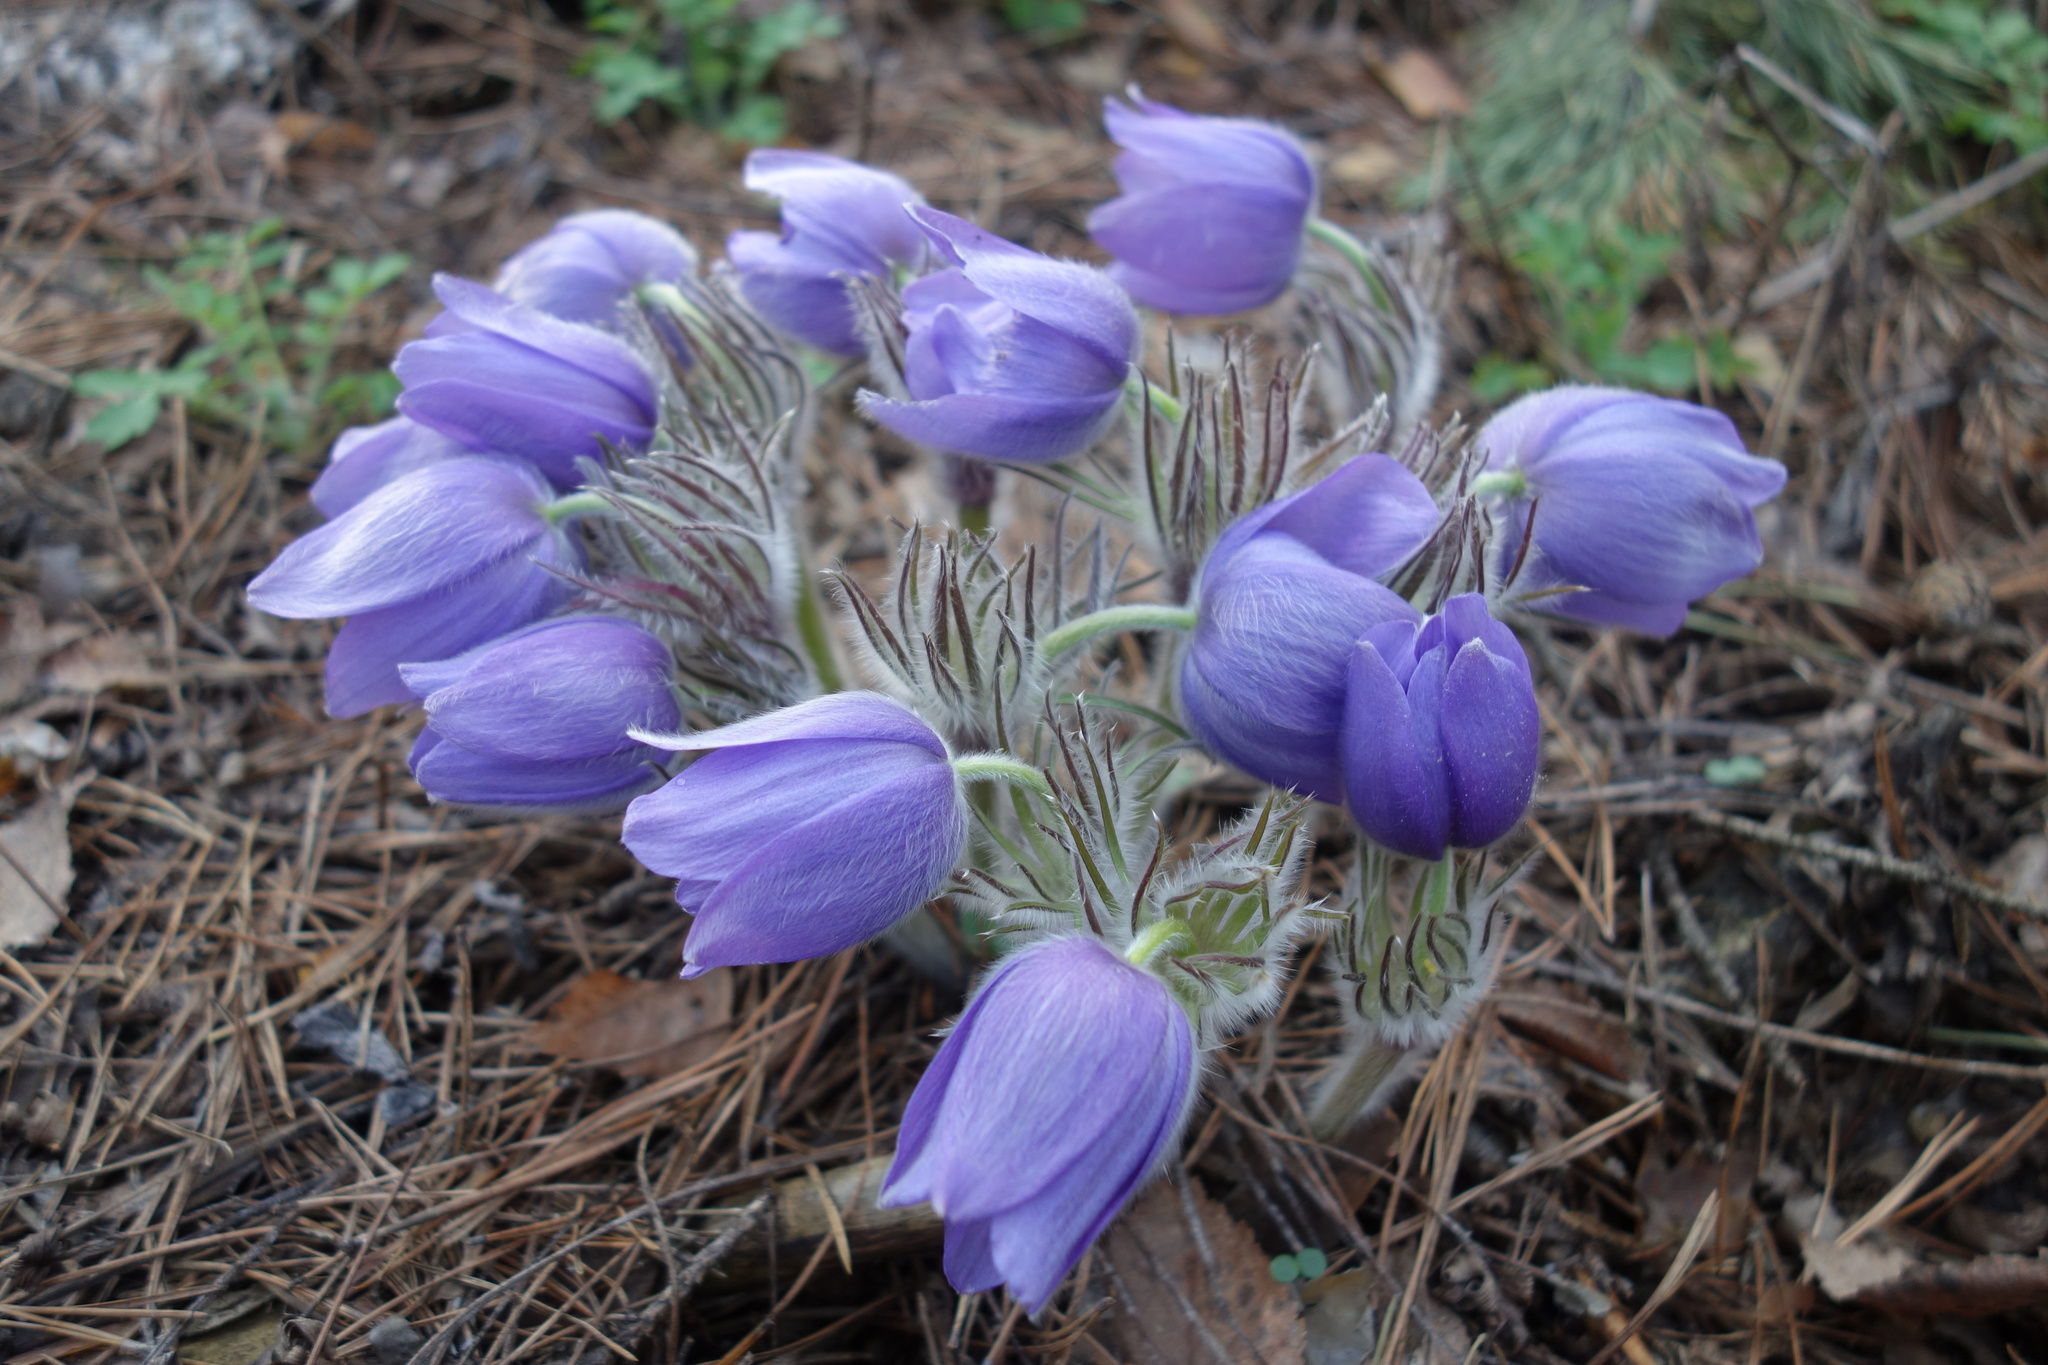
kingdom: Plantae
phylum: Tracheophyta
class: Magnoliopsida
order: Ranunculales
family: Ranunculaceae
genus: Pulsatilla
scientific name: Pulsatilla patens
